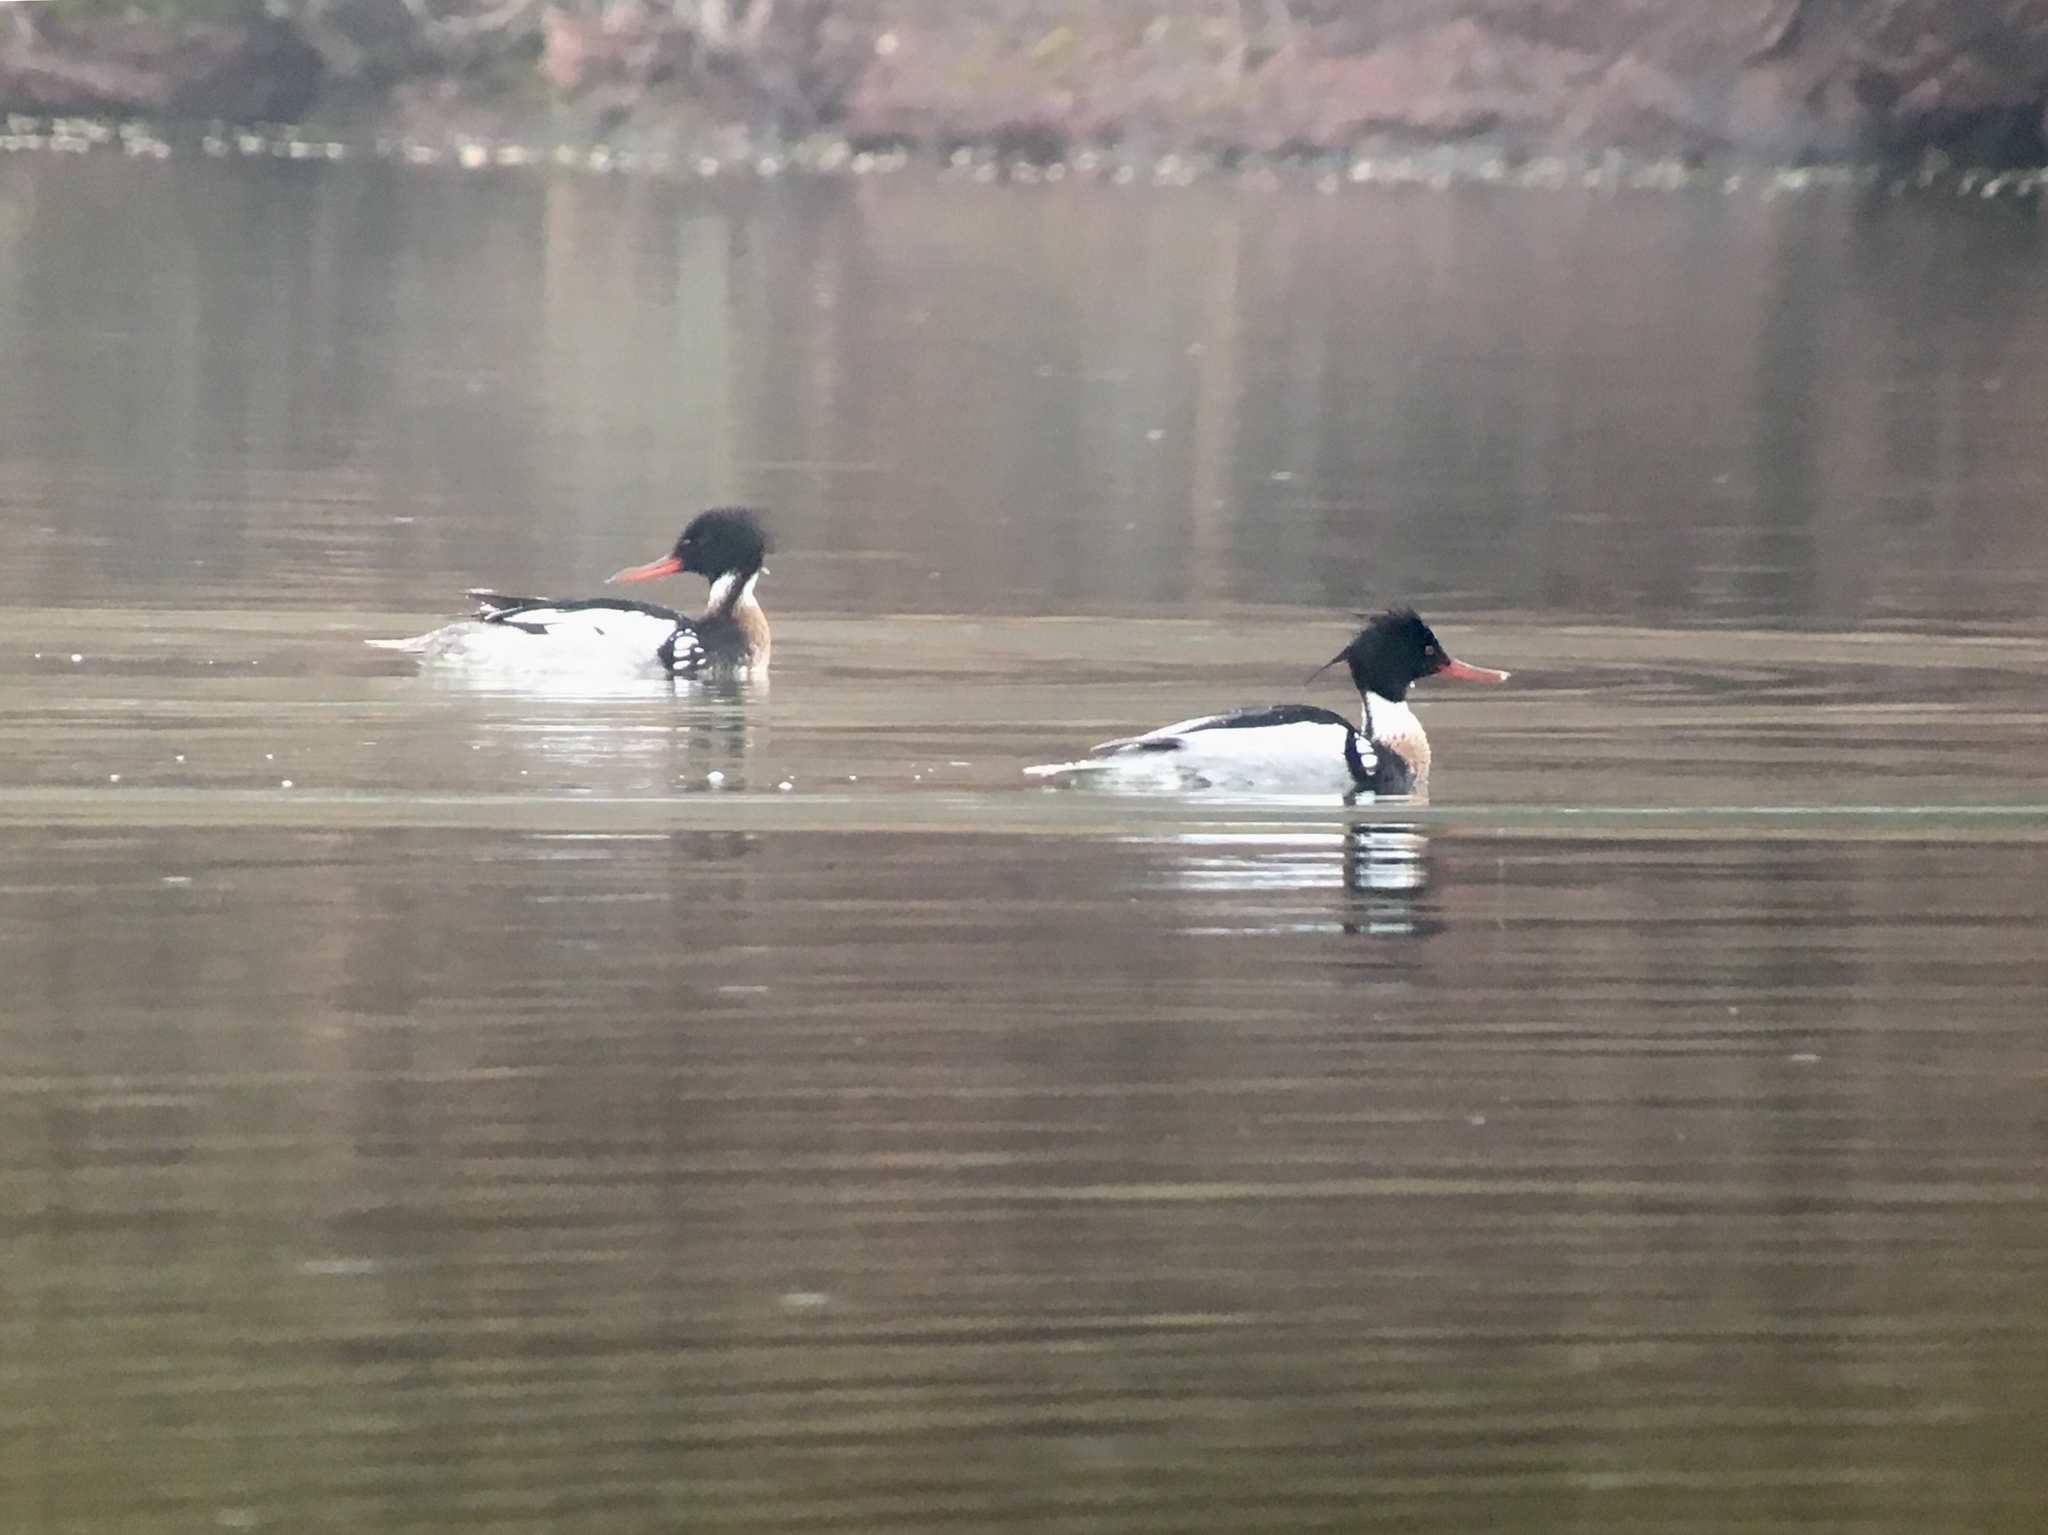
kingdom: Animalia
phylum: Chordata
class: Aves
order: Anseriformes
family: Anatidae
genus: Mergus
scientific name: Mergus serrator
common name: Red-breasted merganser
